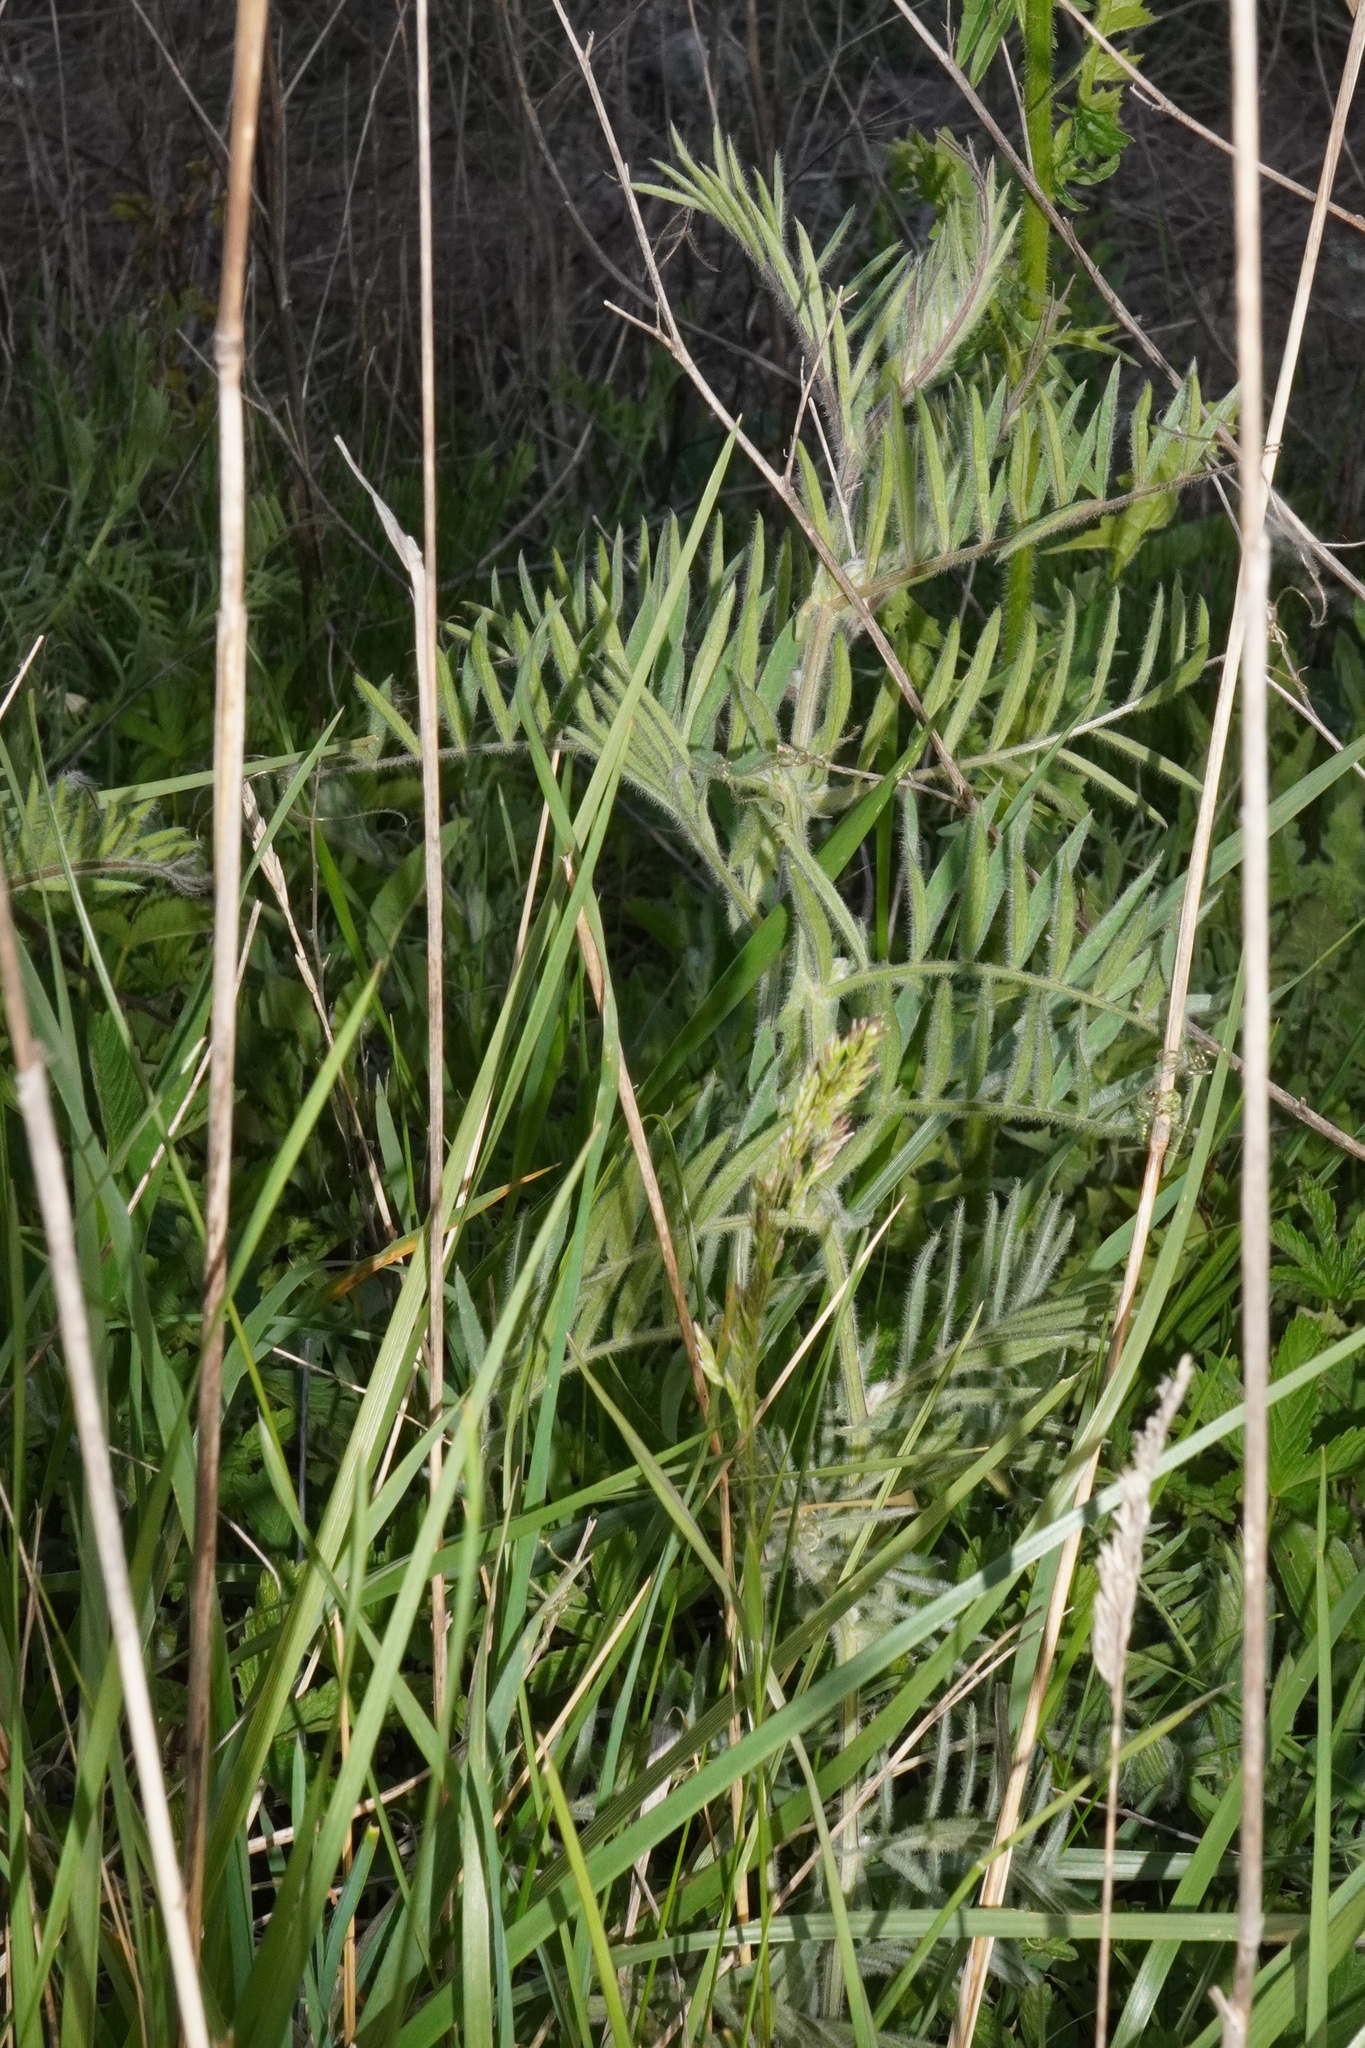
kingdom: Plantae
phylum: Tracheophyta
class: Magnoliopsida
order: Fabales
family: Fabaceae
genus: Vicia
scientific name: Vicia villosa
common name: Fodder vetch
